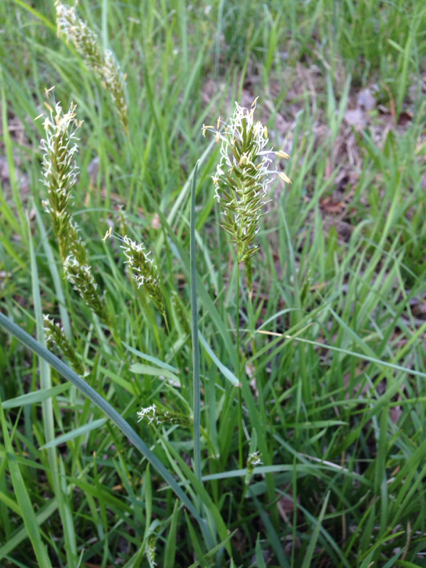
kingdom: Plantae
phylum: Tracheophyta
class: Liliopsida
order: Poales
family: Poaceae
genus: Anthoxanthum
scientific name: Anthoxanthum odoratum
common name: Sweet vernalgrass
